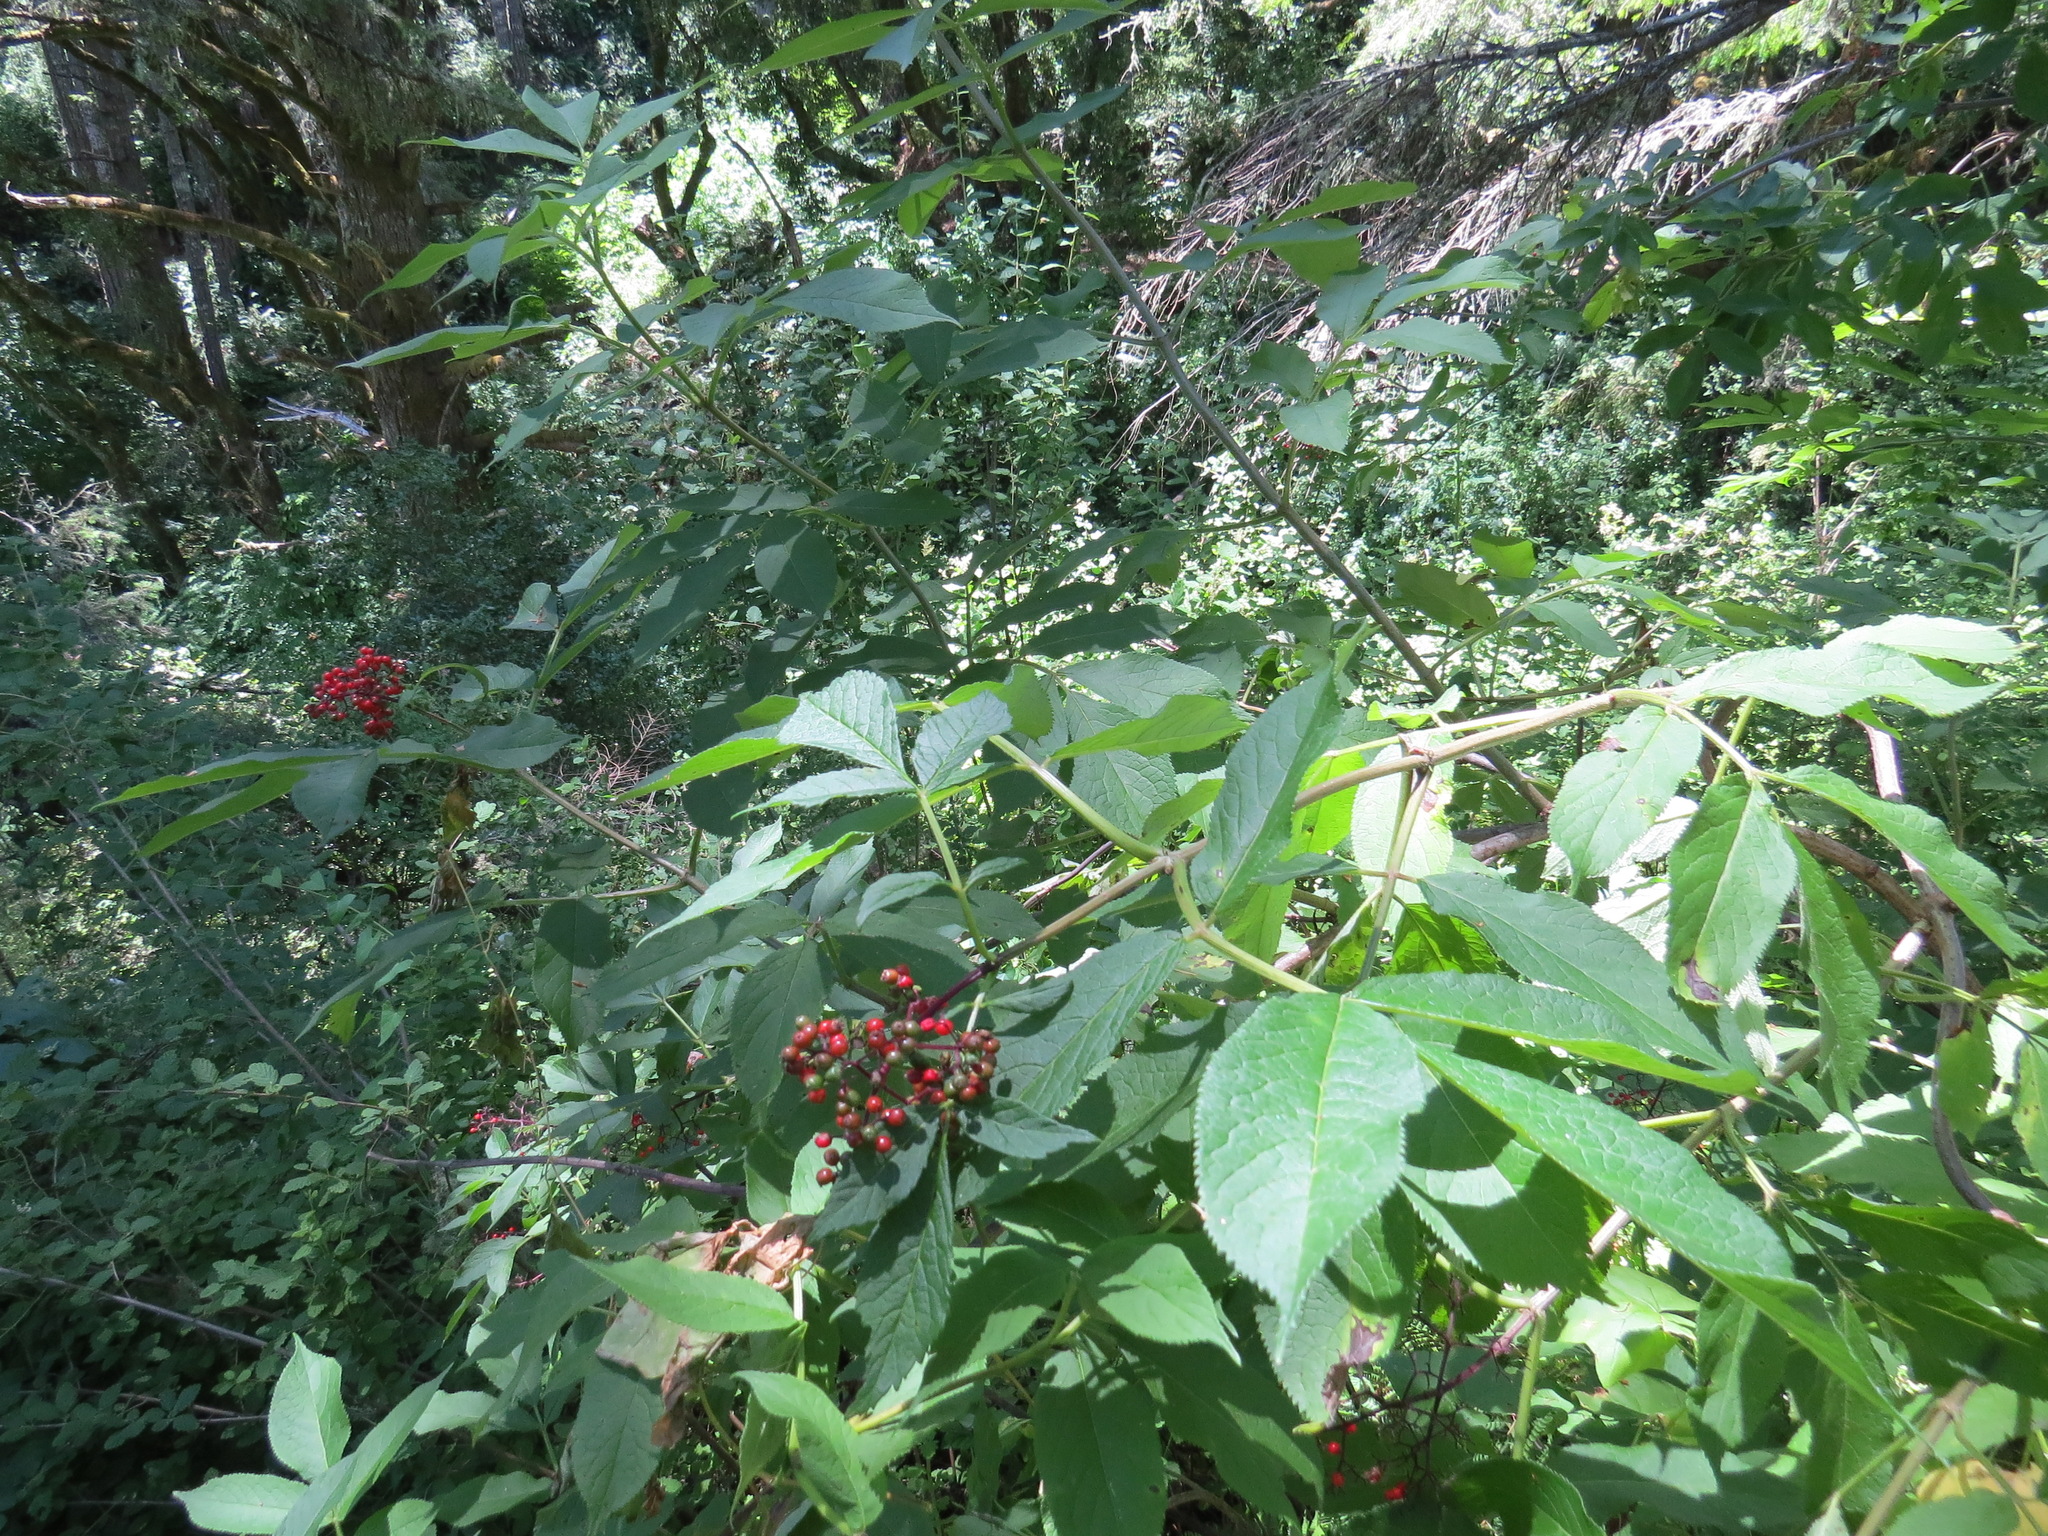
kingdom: Plantae
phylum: Tracheophyta
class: Magnoliopsida
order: Dipsacales
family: Viburnaceae
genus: Sambucus
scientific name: Sambucus racemosa
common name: Red-berried elder
